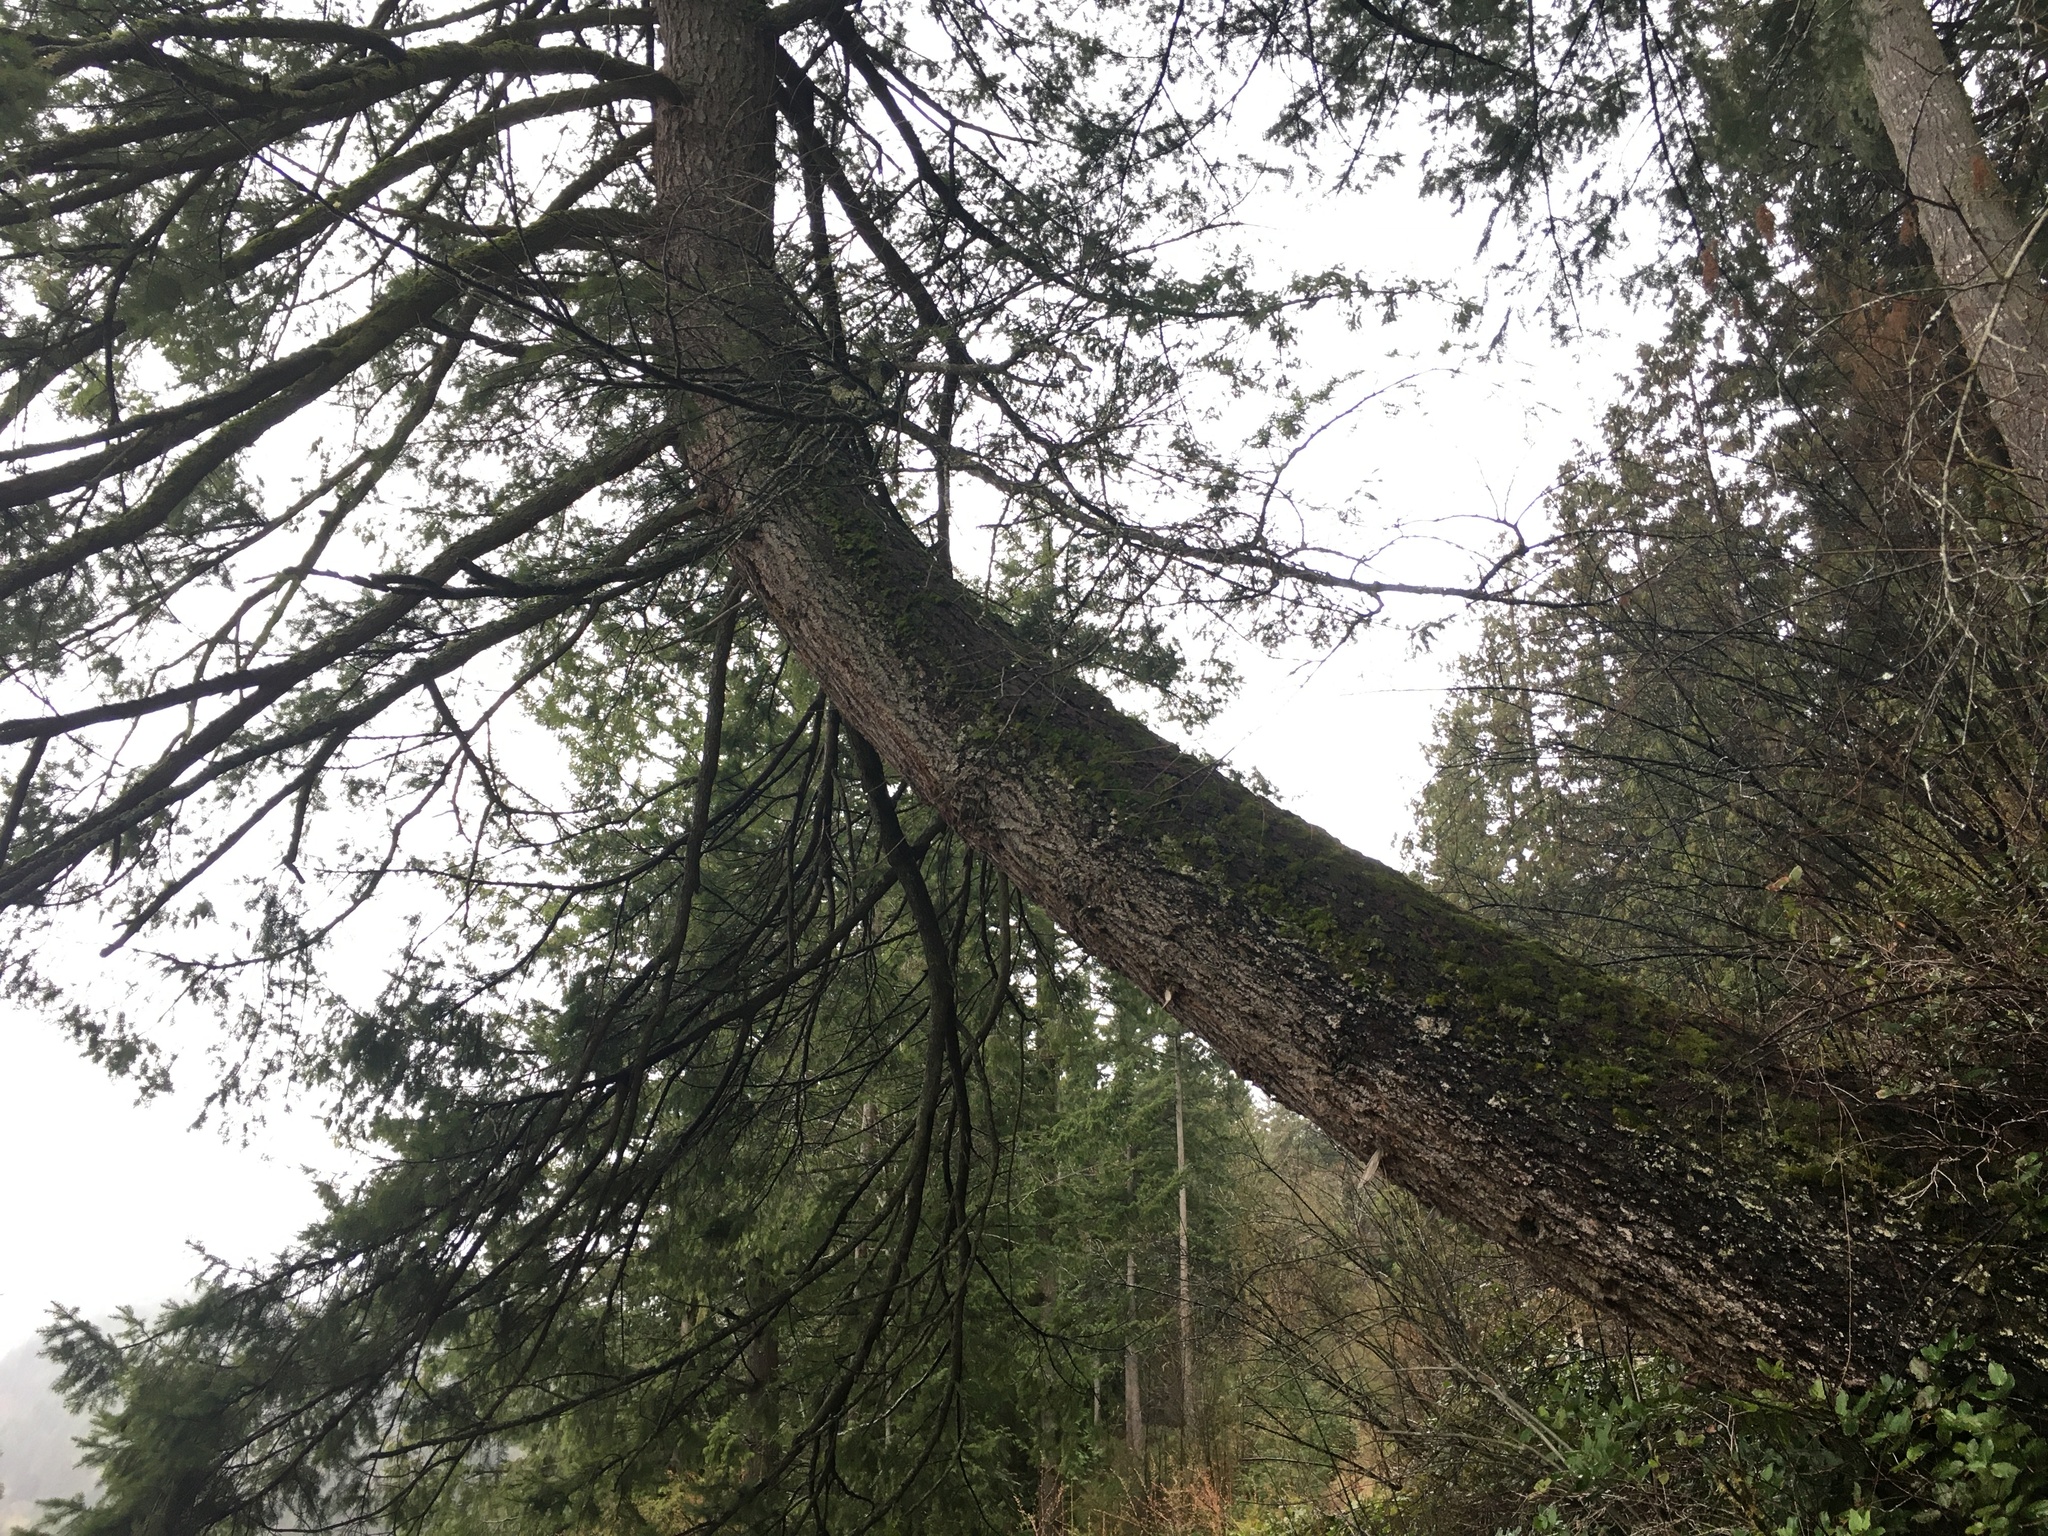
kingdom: Plantae
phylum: Tracheophyta
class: Pinopsida
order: Pinales
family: Pinaceae
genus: Pseudotsuga
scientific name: Pseudotsuga menziesii
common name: Douglas fir
